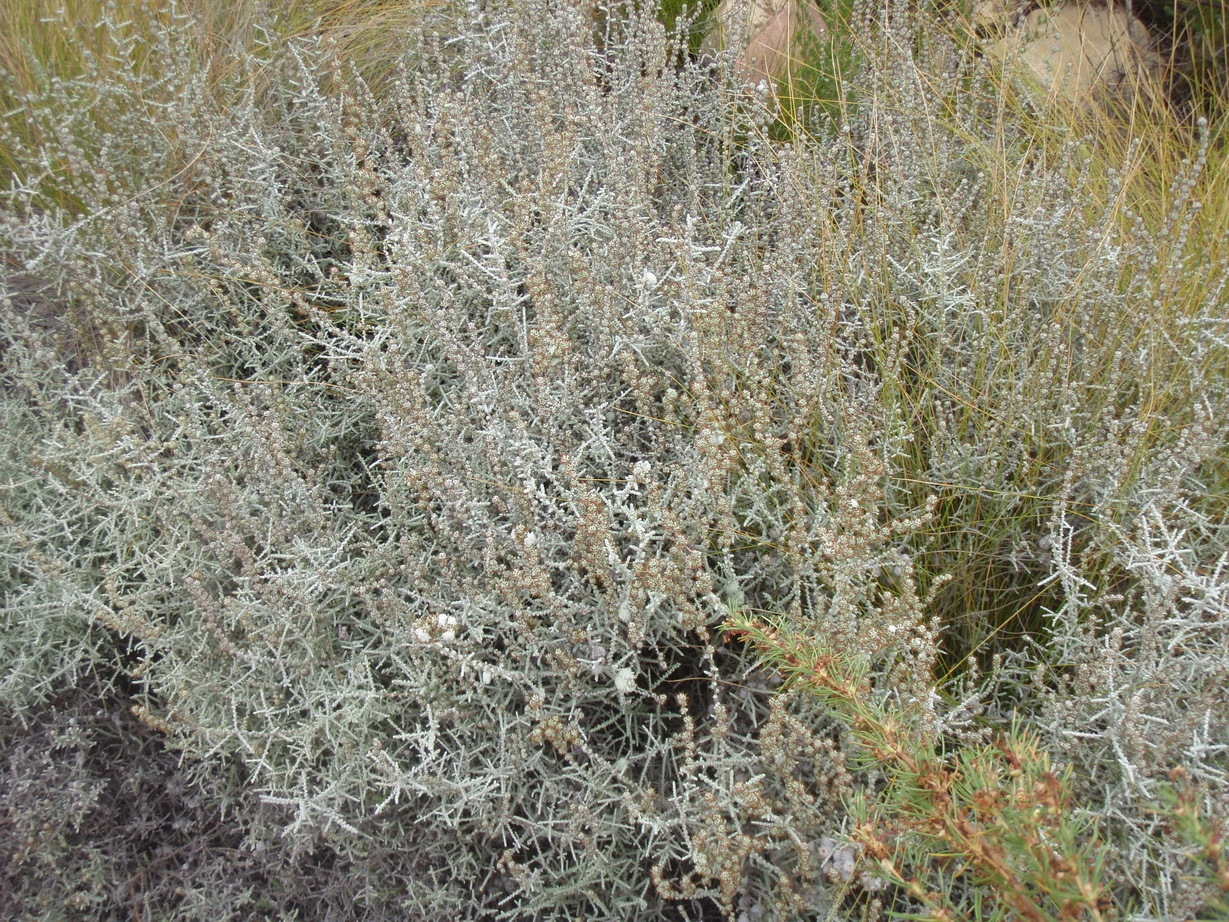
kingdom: Plantae
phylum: Tracheophyta
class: Magnoliopsida
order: Asterales
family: Asteraceae
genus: Seriphium
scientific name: Seriphium
